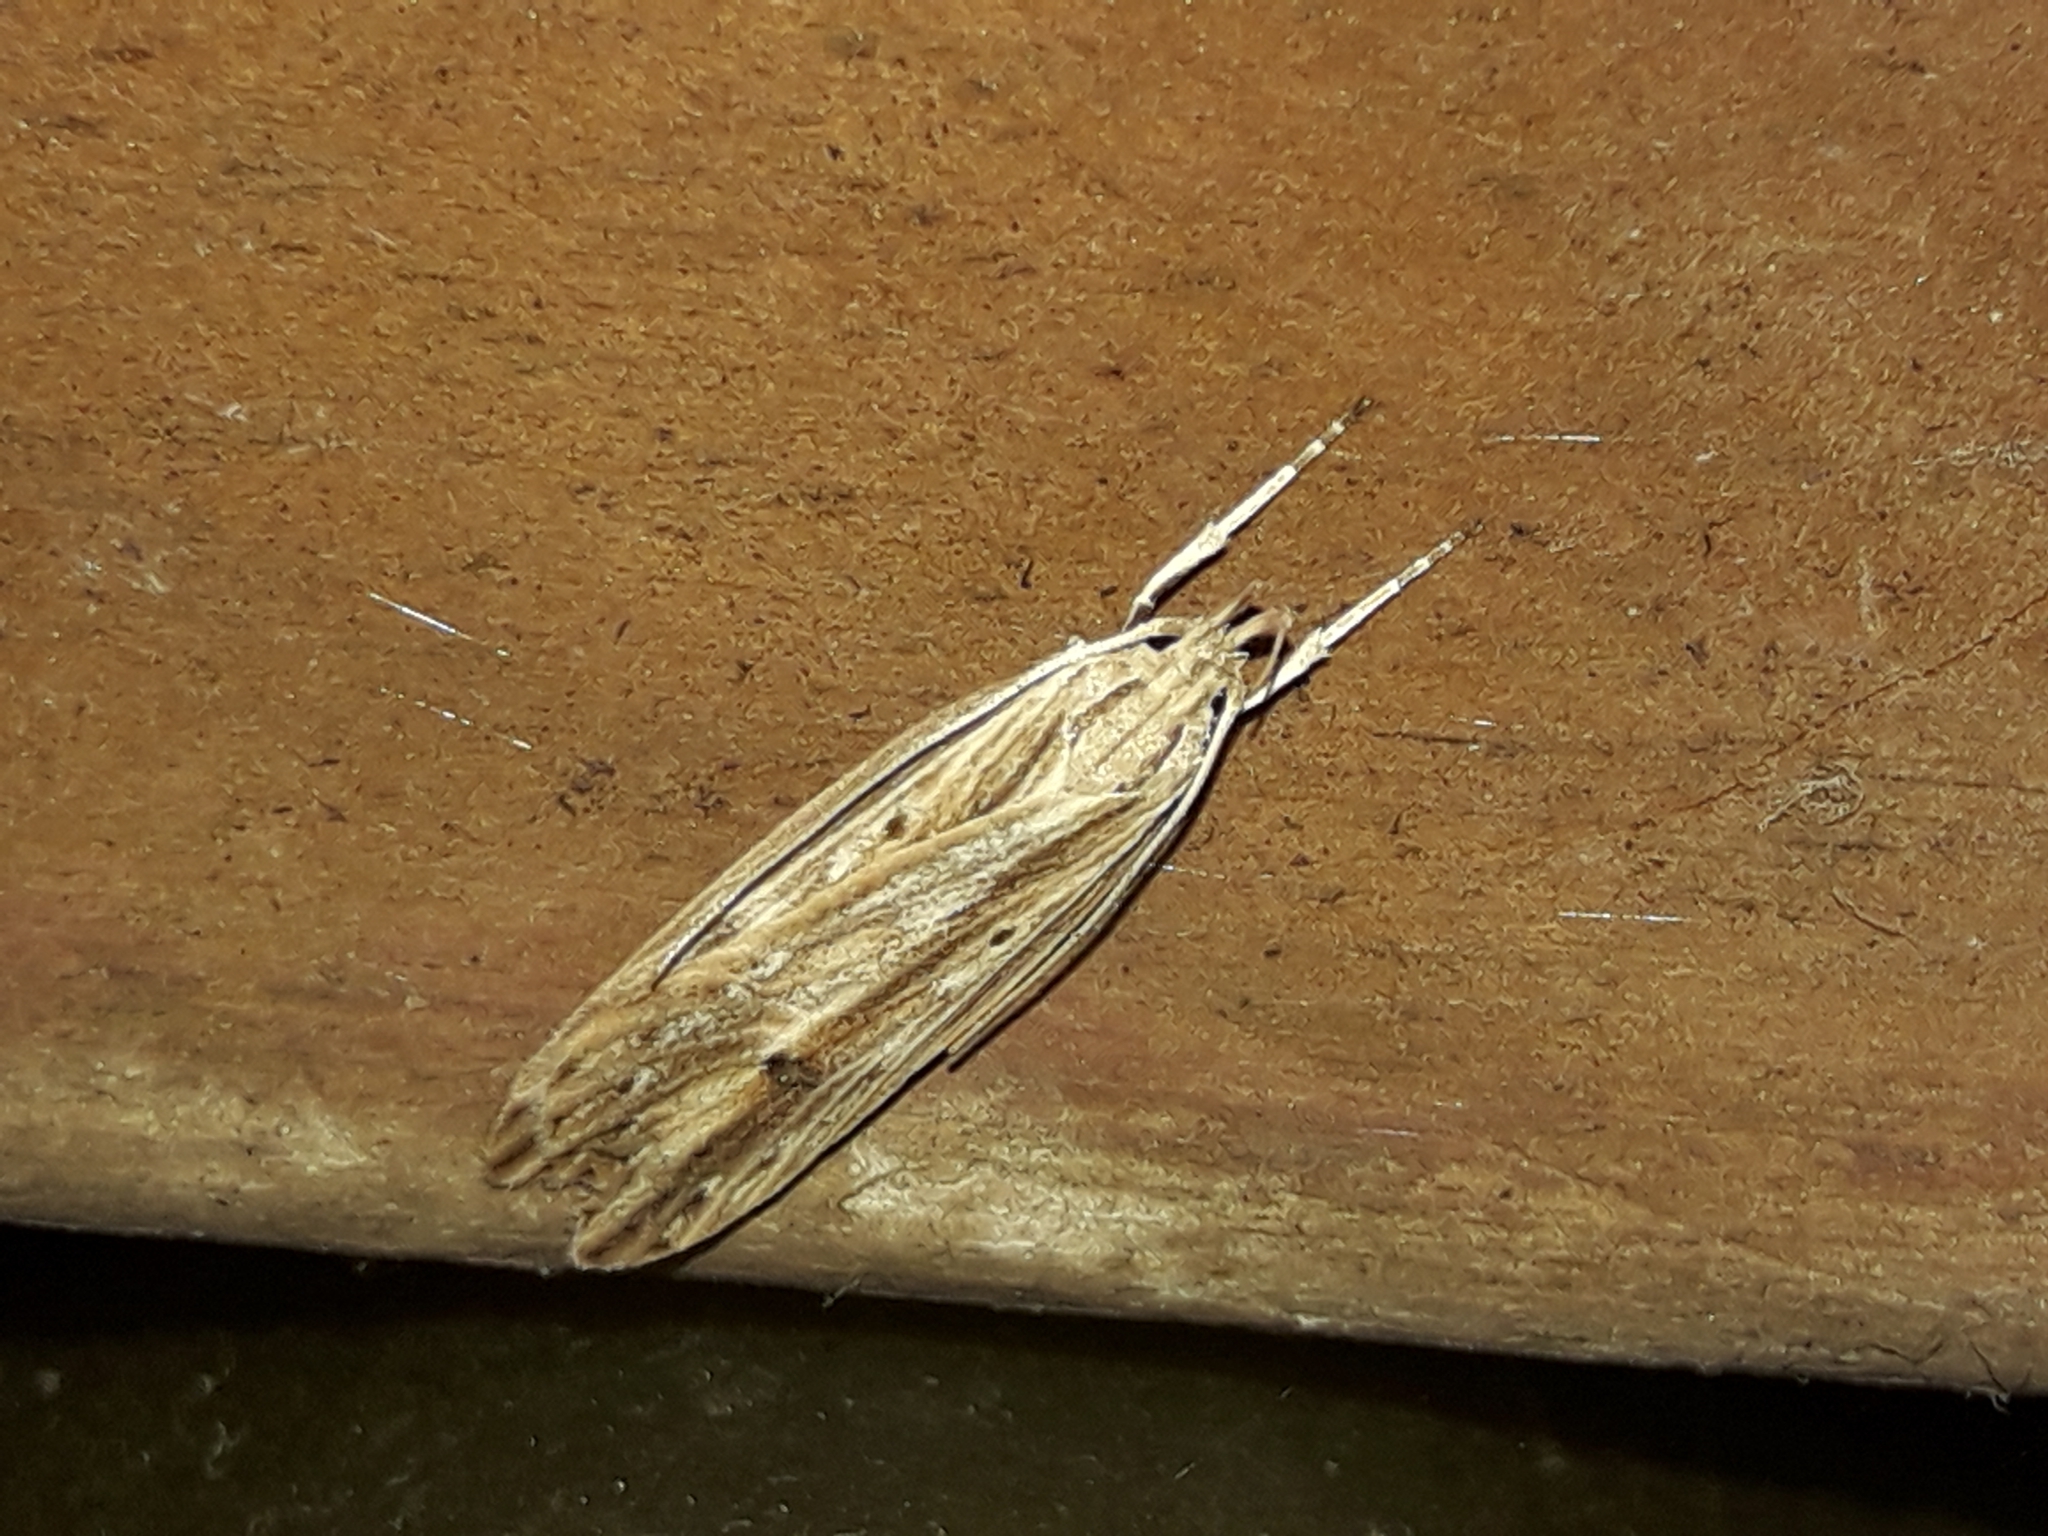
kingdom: Animalia
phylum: Arthropoda
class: Insecta
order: Lepidoptera
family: Xyloryctidae
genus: Donacostola
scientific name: Donacostola notabilis
